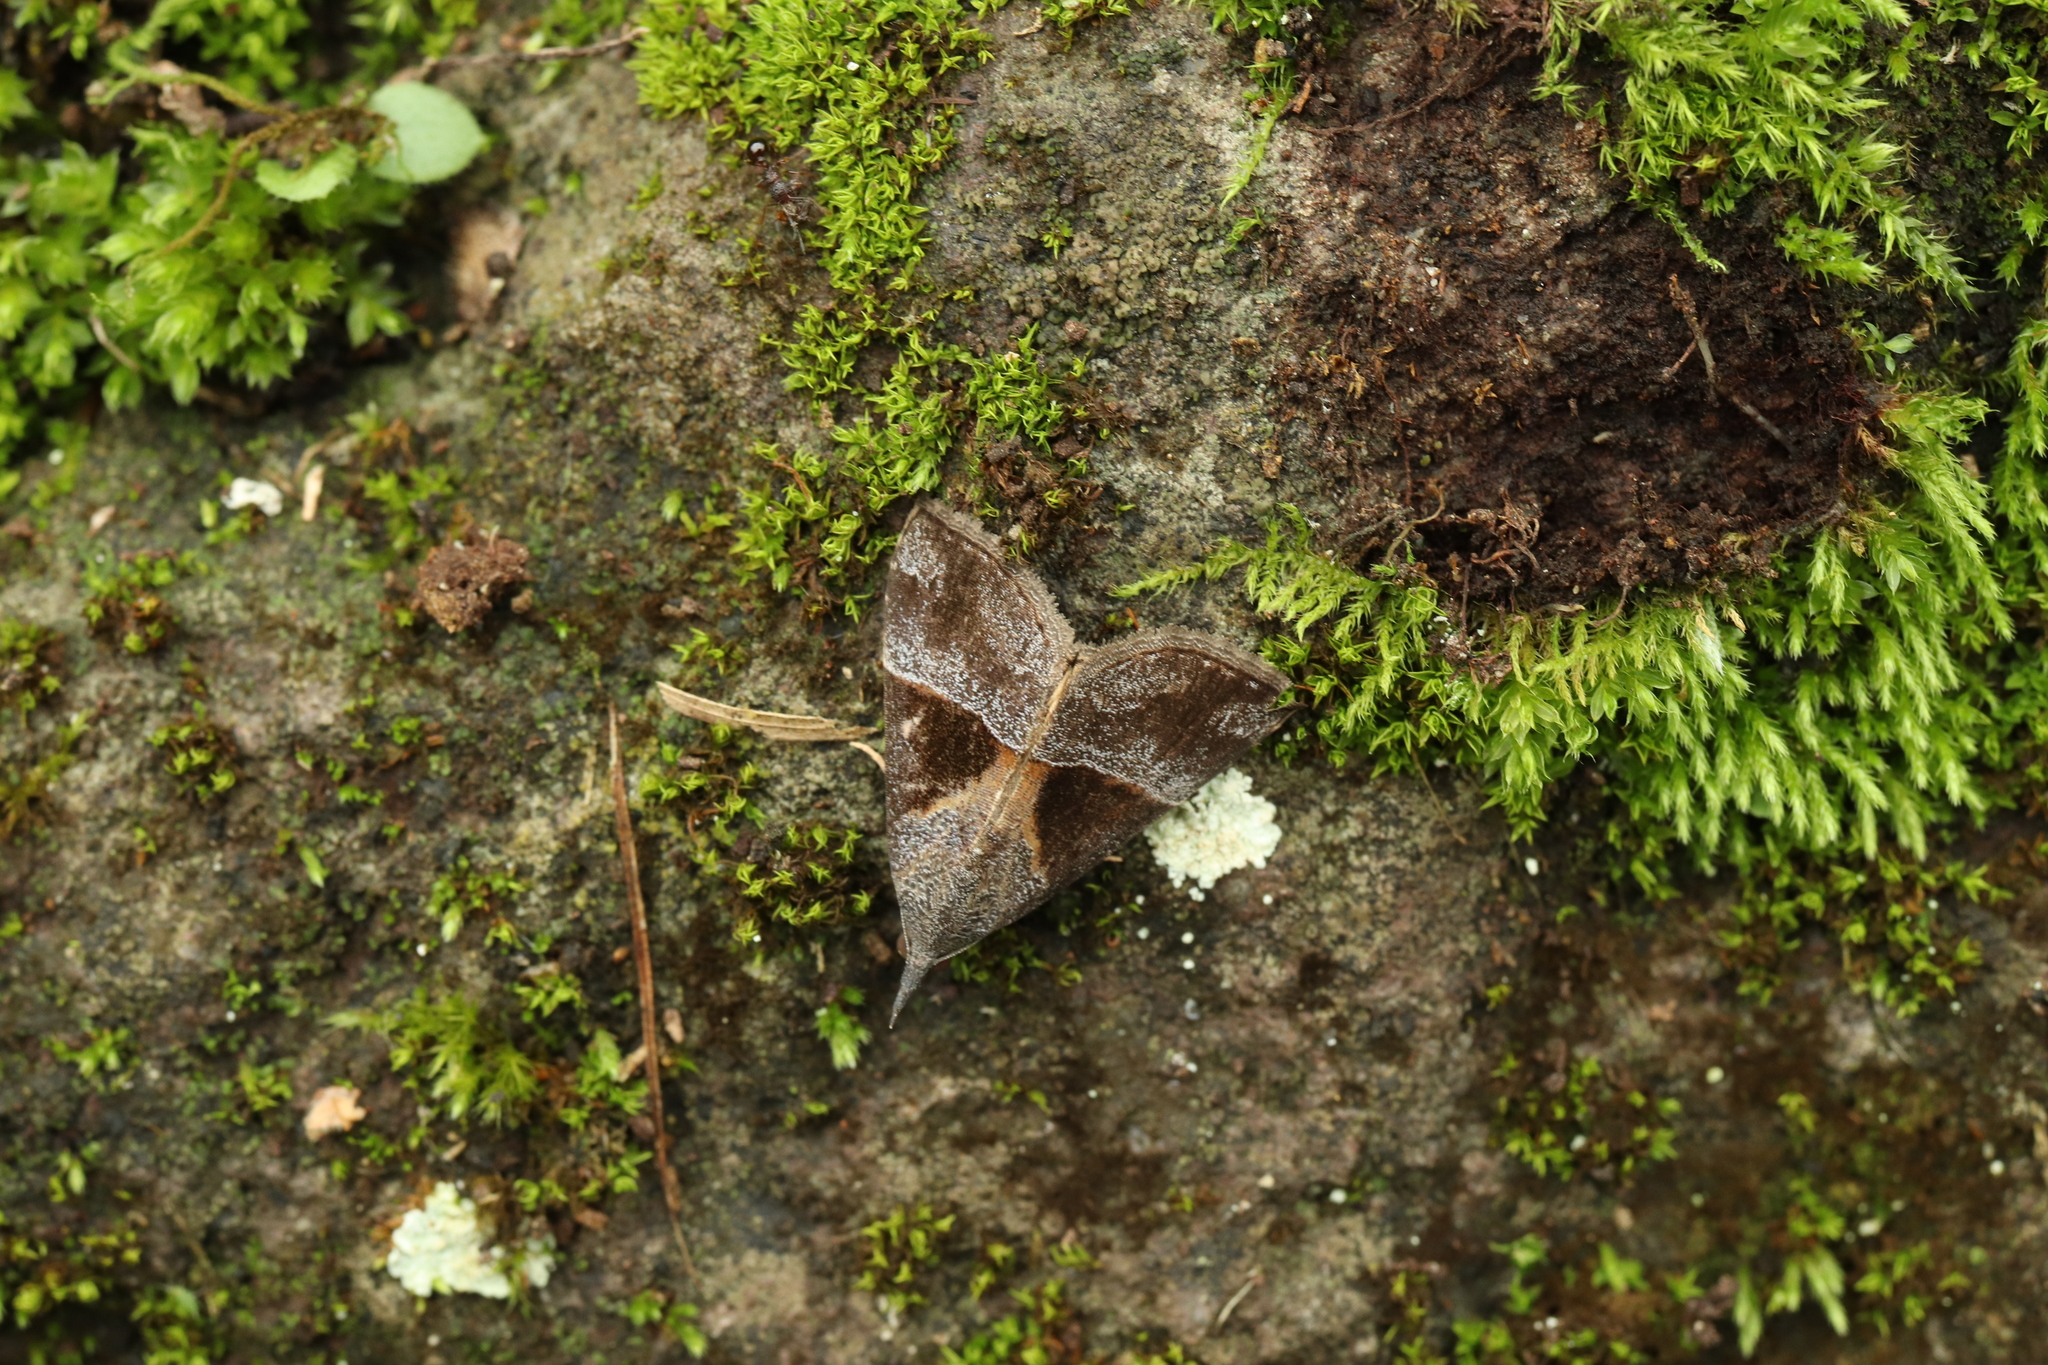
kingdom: Animalia
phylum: Arthropoda
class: Insecta
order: Lepidoptera
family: Erebidae
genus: Hypena
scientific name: Hypena trigonalis
